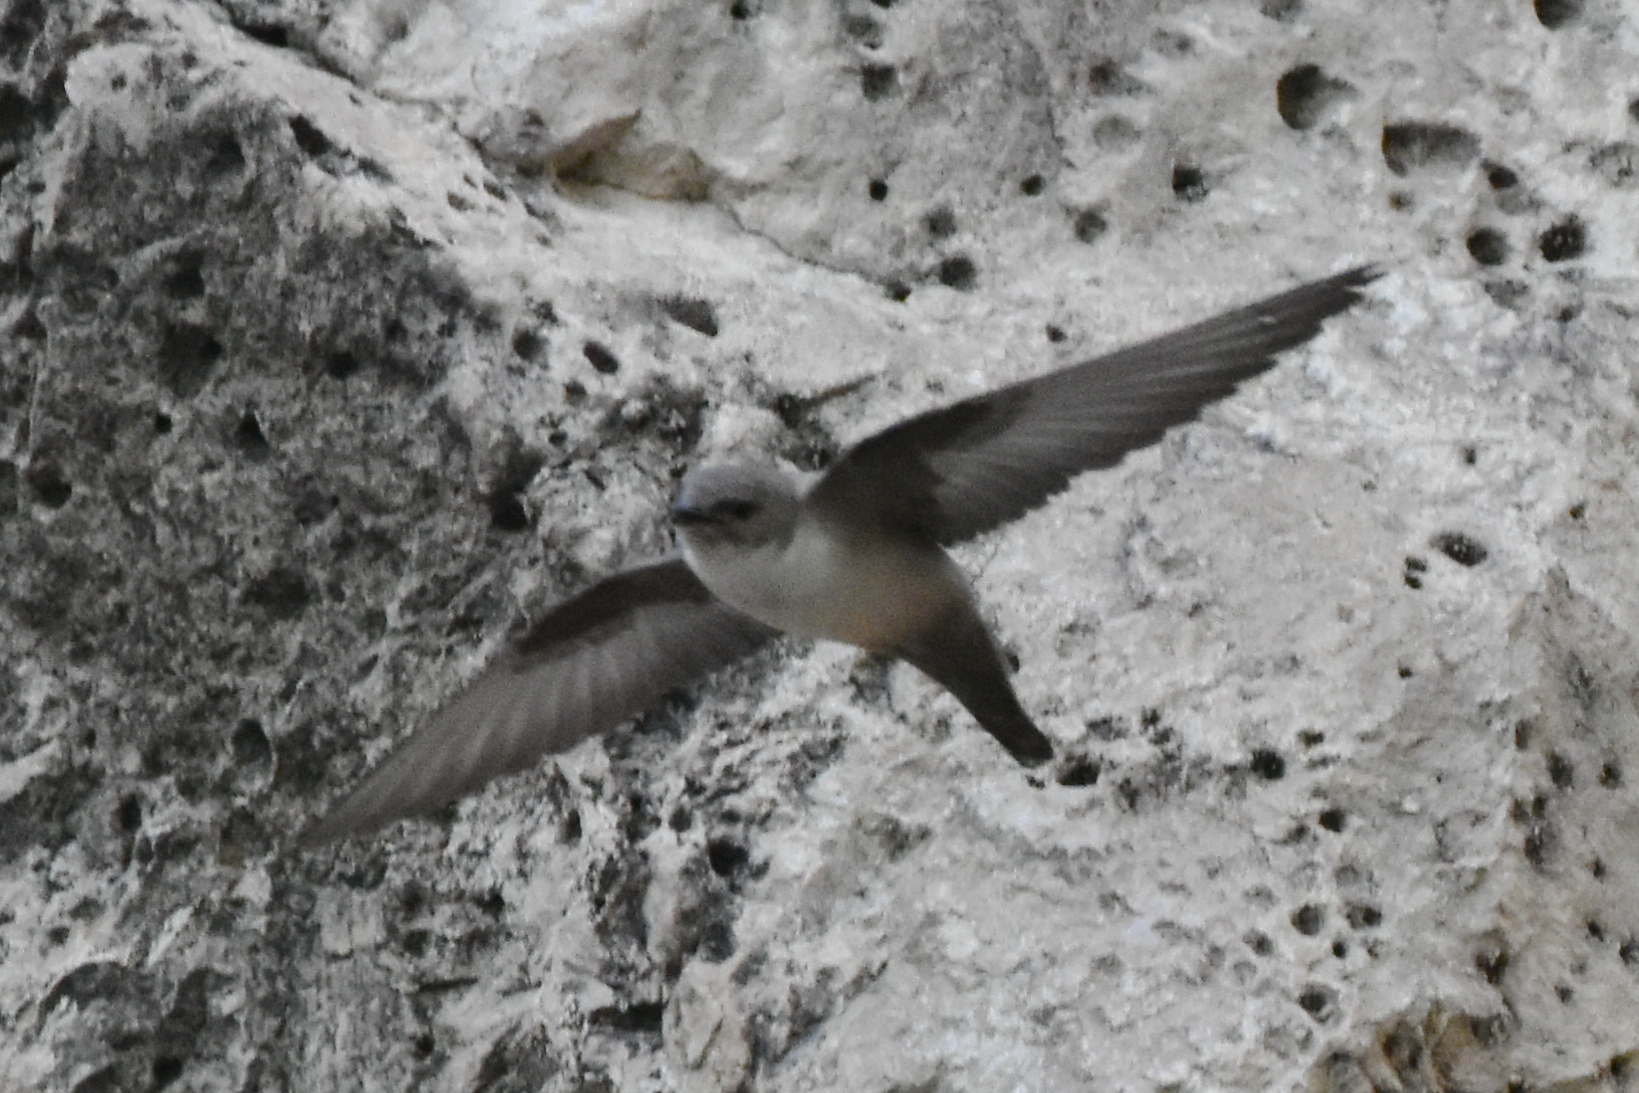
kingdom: Animalia
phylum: Chordata
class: Aves
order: Passeriformes
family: Hirundinidae
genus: Ptyonoprogne
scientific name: Ptyonoprogne rupestris
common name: Eurasian crag martin
